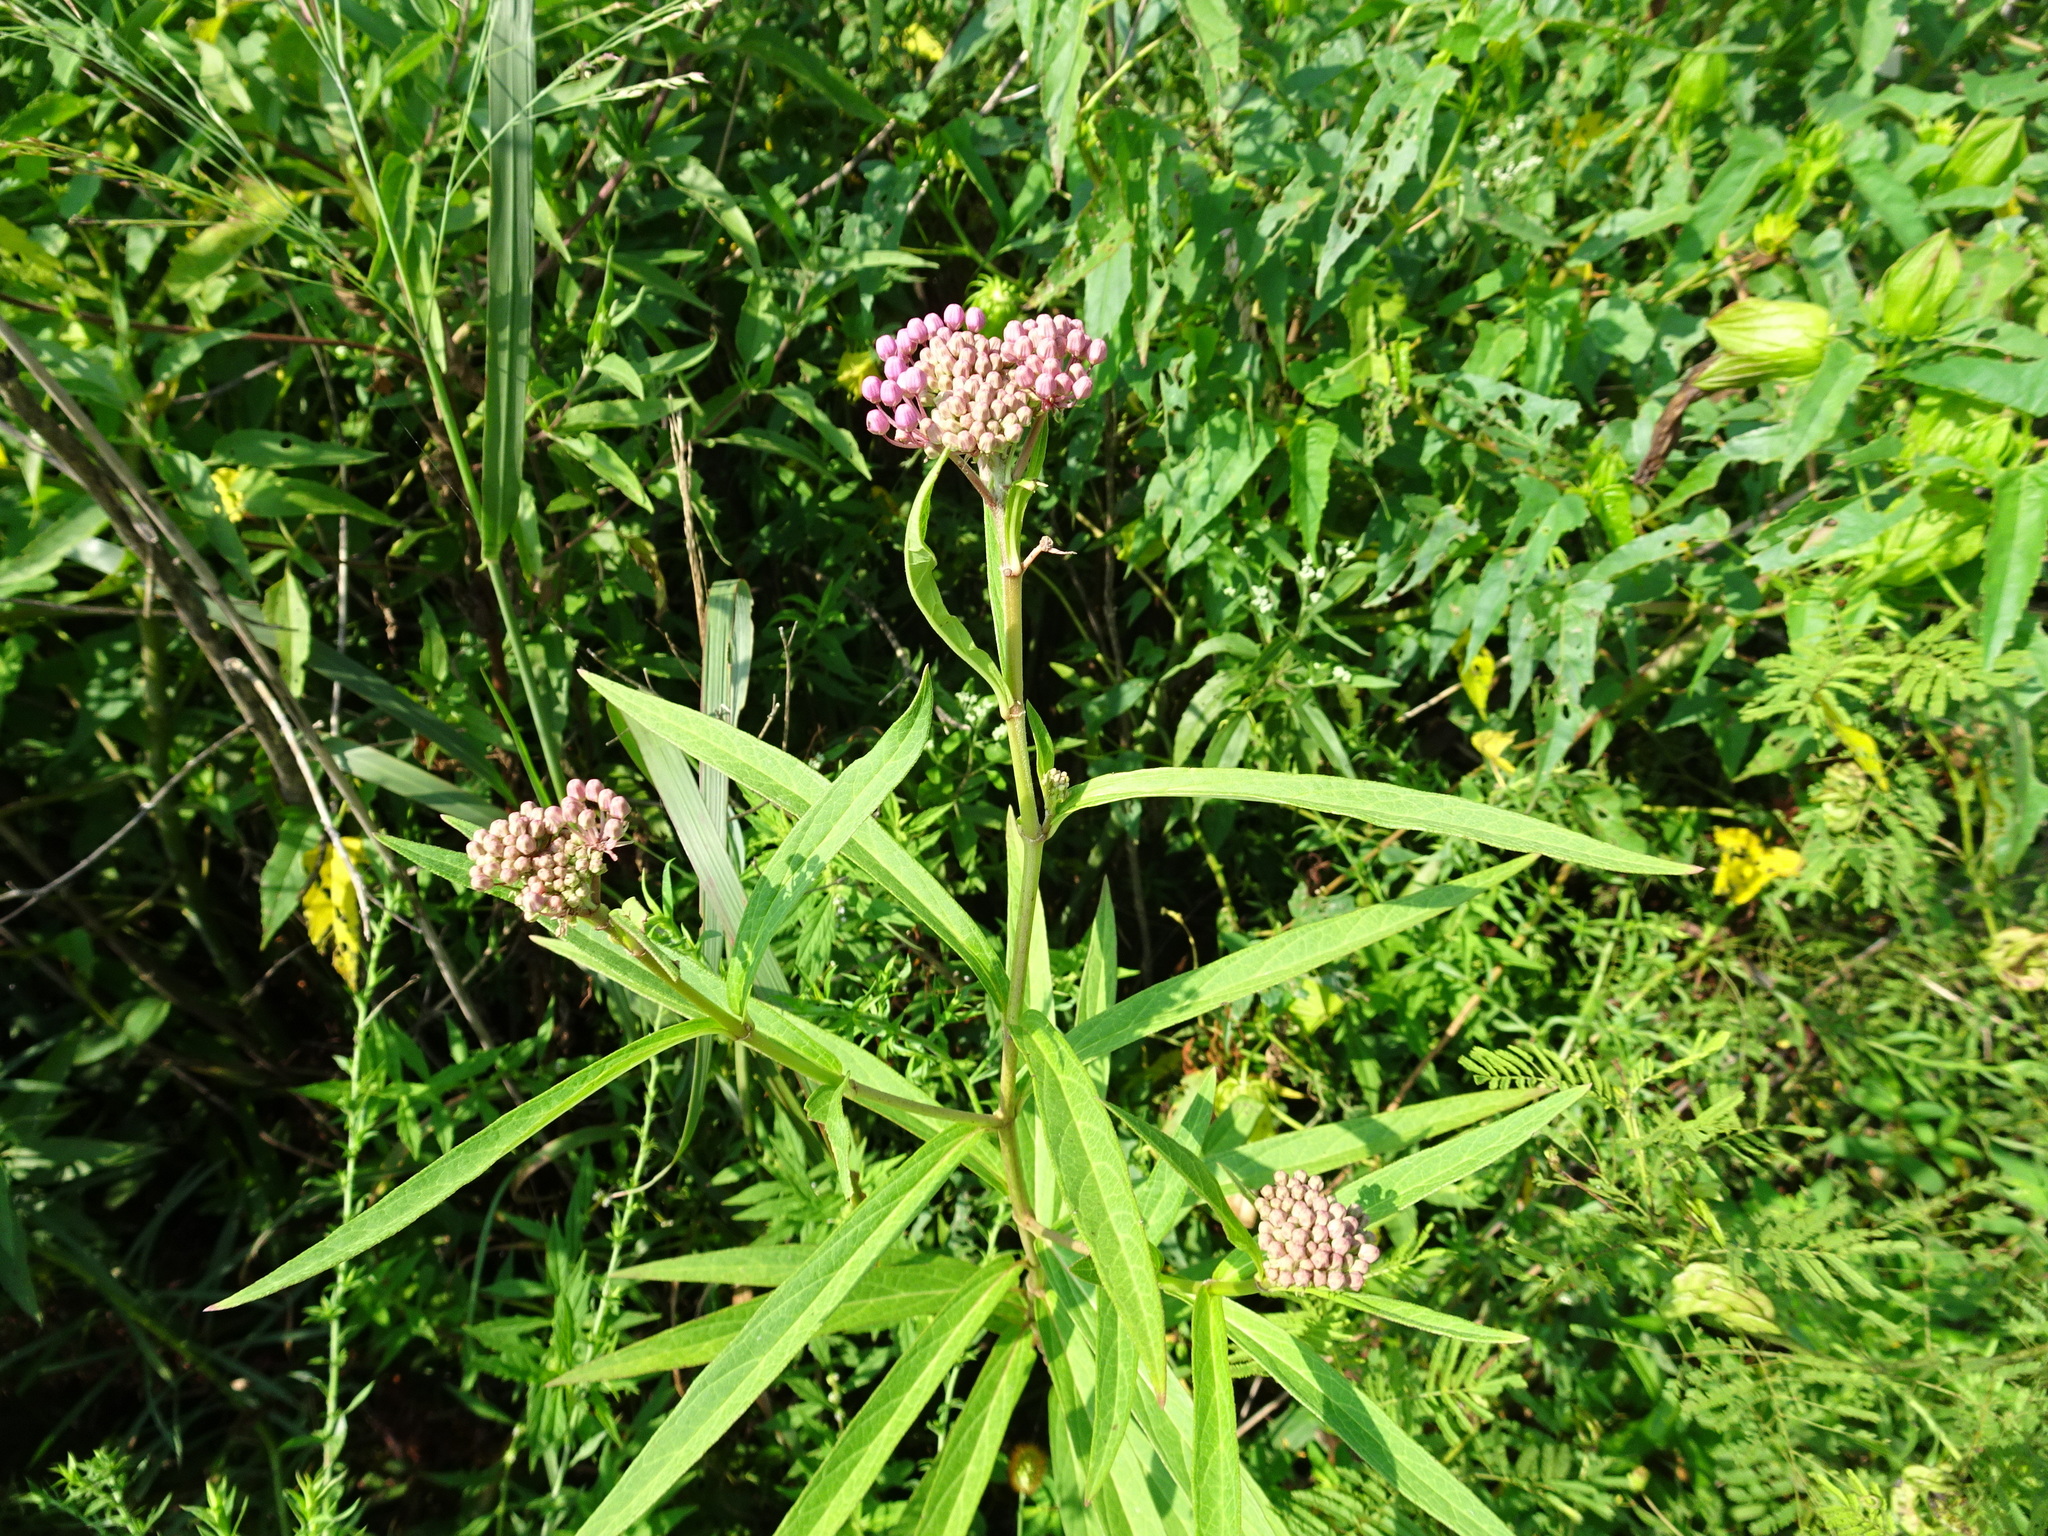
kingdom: Plantae
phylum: Tracheophyta
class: Magnoliopsida
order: Gentianales
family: Apocynaceae
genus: Asclepias
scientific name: Asclepias incarnata
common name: Swamp milkweed
